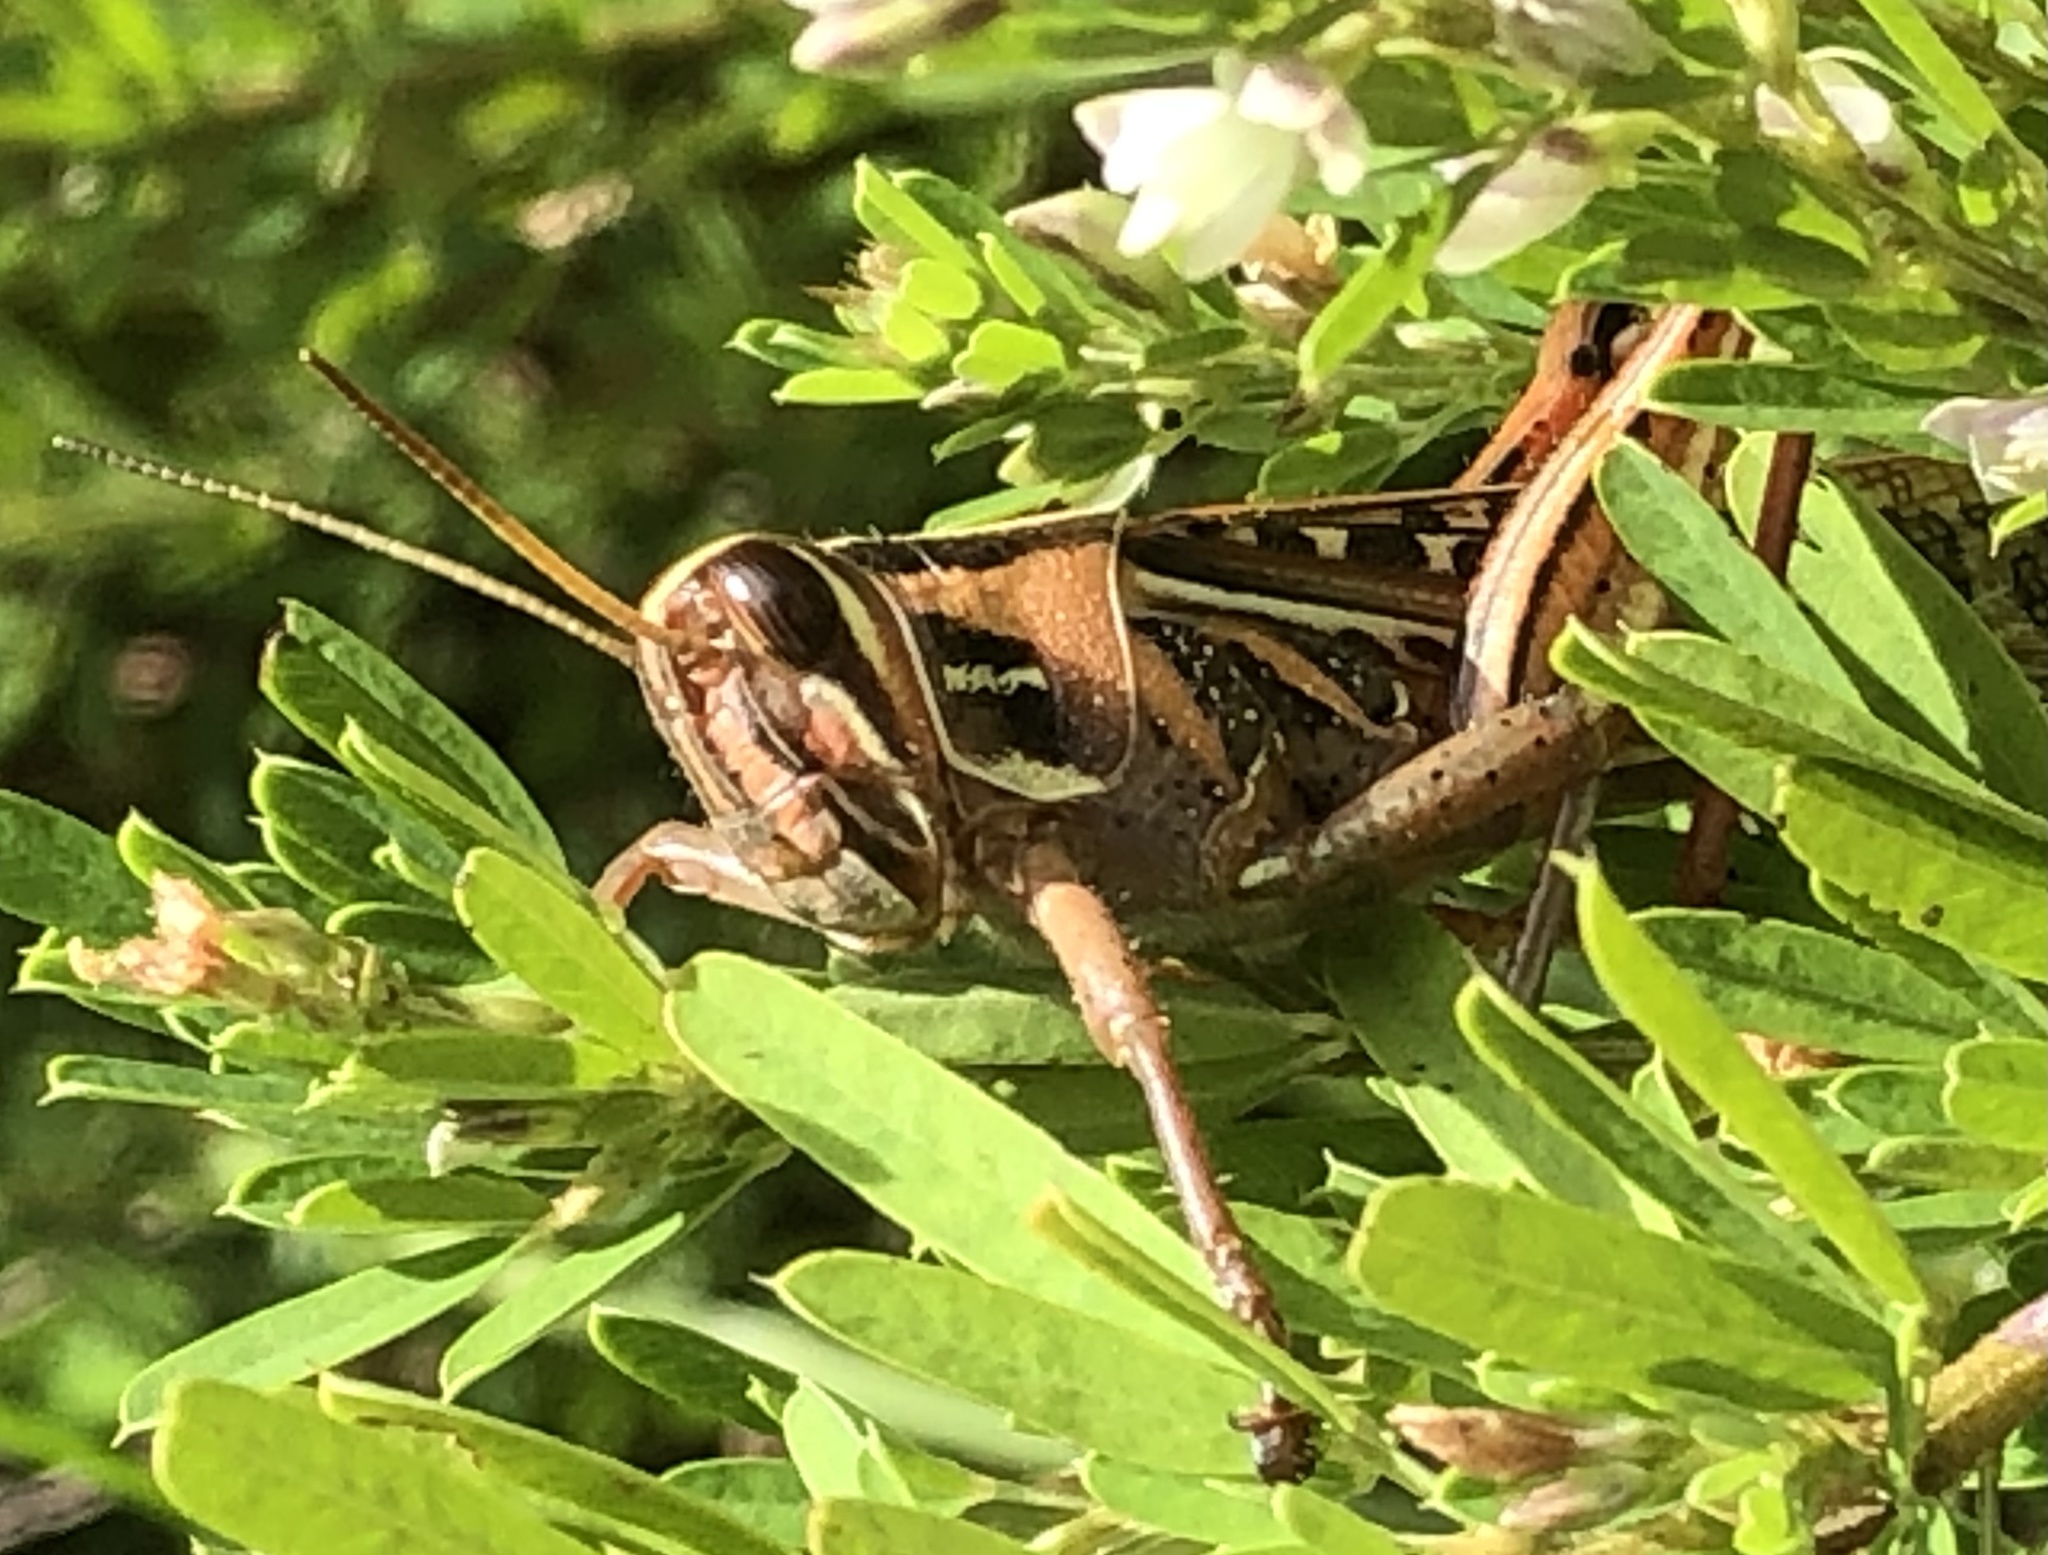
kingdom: Animalia
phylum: Arthropoda
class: Insecta
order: Orthoptera
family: Acrididae
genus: Schistocerca
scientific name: Schistocerca americana
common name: American bird locust
